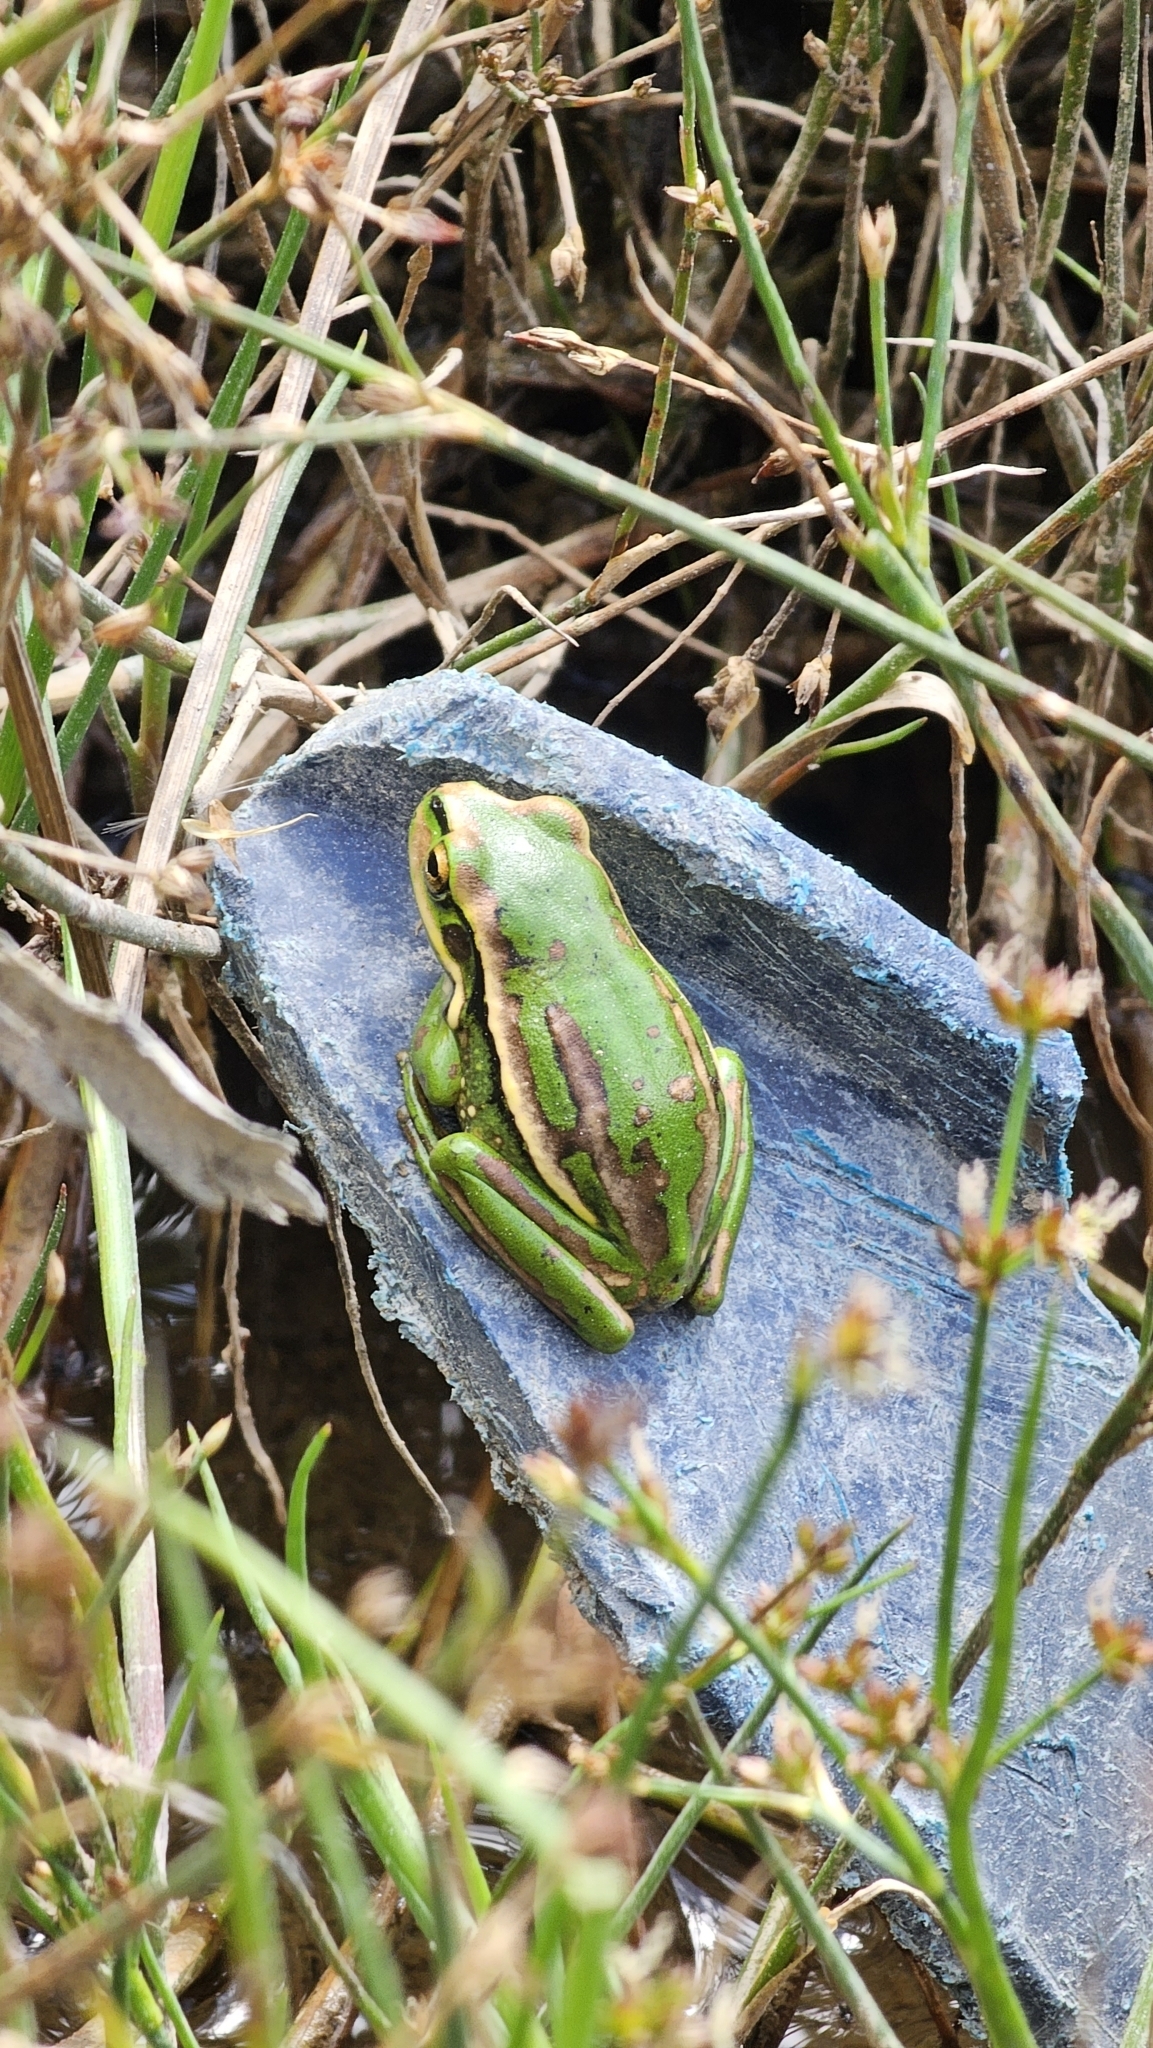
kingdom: Animalia
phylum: Chordata
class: Amphibia
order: Anura
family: Pelodryadidae
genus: Ranoidea
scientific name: Ranoidea aurea
